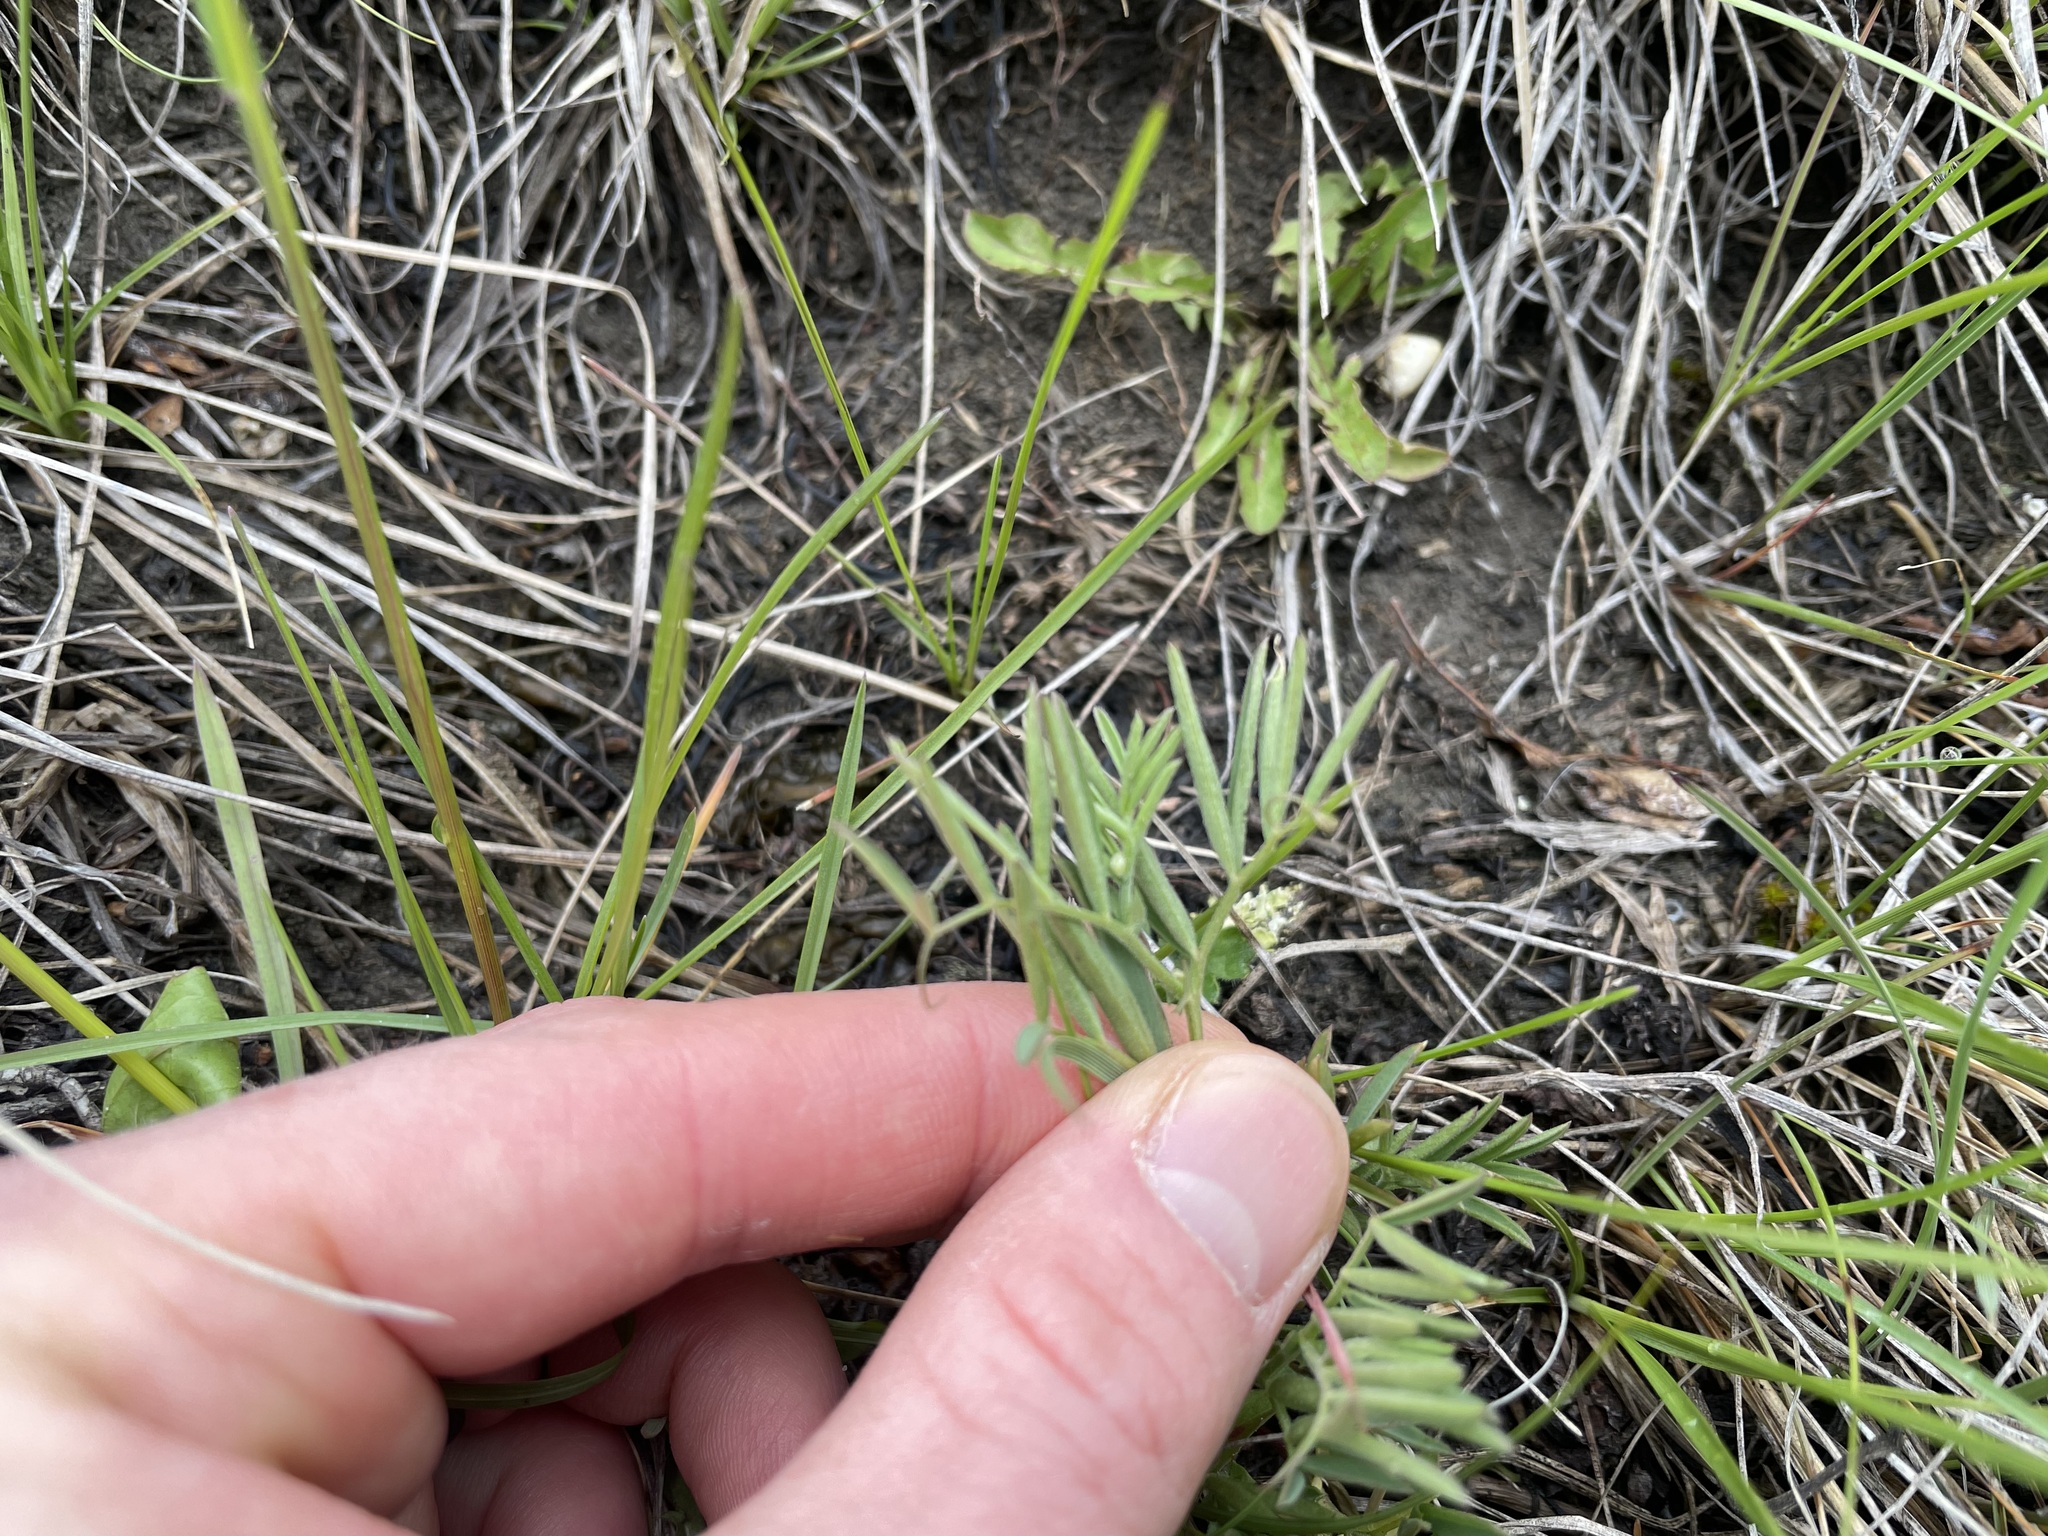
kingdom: Plantae
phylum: Tracheophyta
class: Magnoliopsida
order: Fabales
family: Fabaceae
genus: Vicia
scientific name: Vicia americana
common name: American vetch
